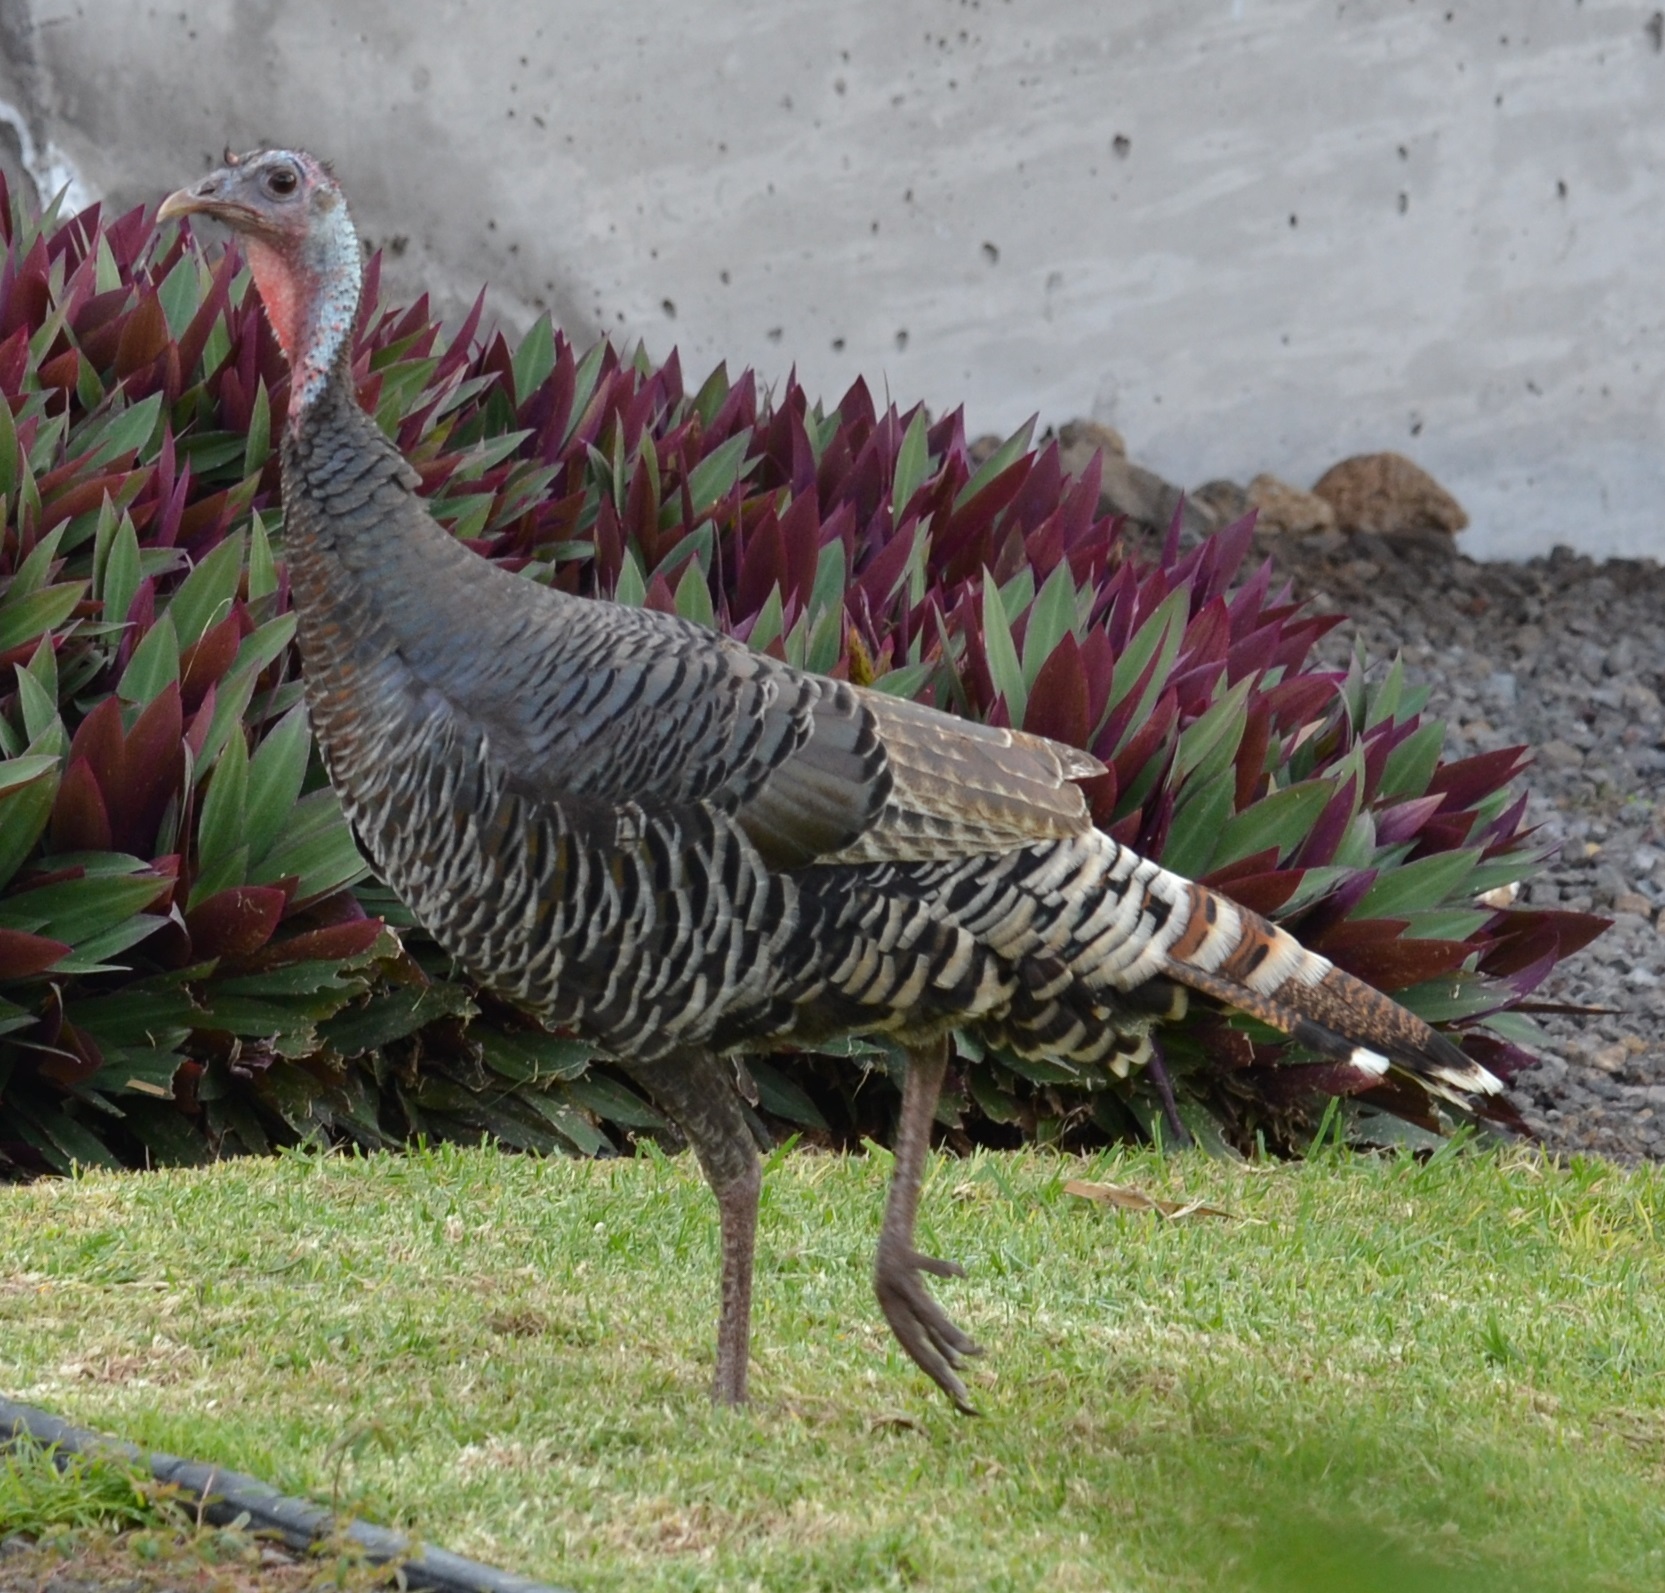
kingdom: Animalia
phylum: Chordata
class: Aves
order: Galliformes
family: Phasianidae
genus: Meleagris
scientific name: Meleagris gallopavo
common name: Wild turkey
